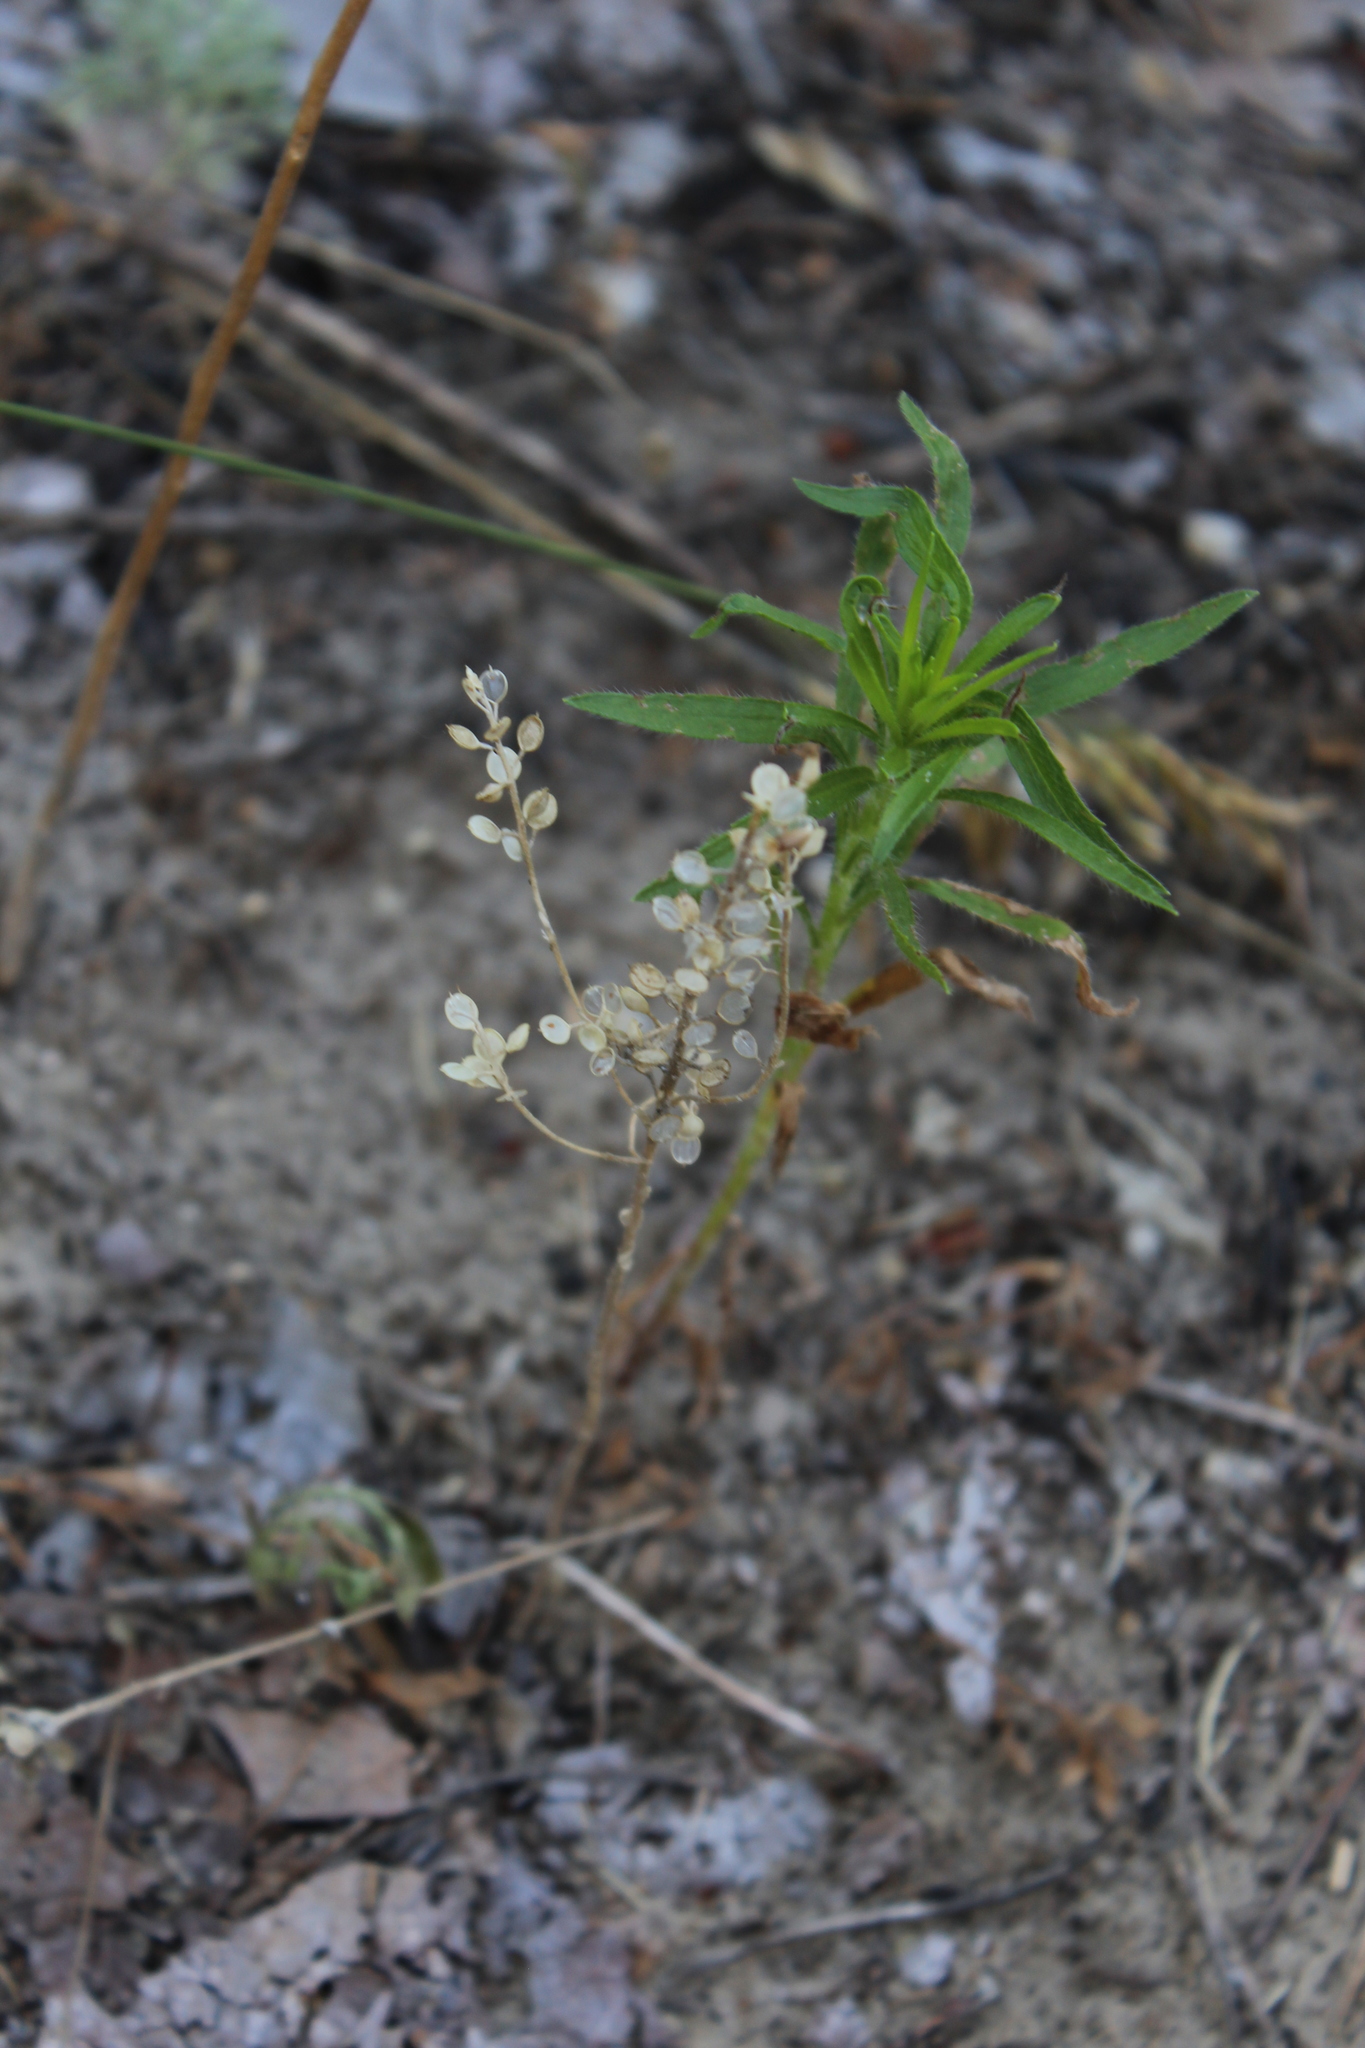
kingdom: Plantae
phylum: Tracheophyta
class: Magnoliopsida
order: Brassicales
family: Brassicaceae
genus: Alyssum
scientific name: Alyssum turkestanicum
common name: Desert alyssum
